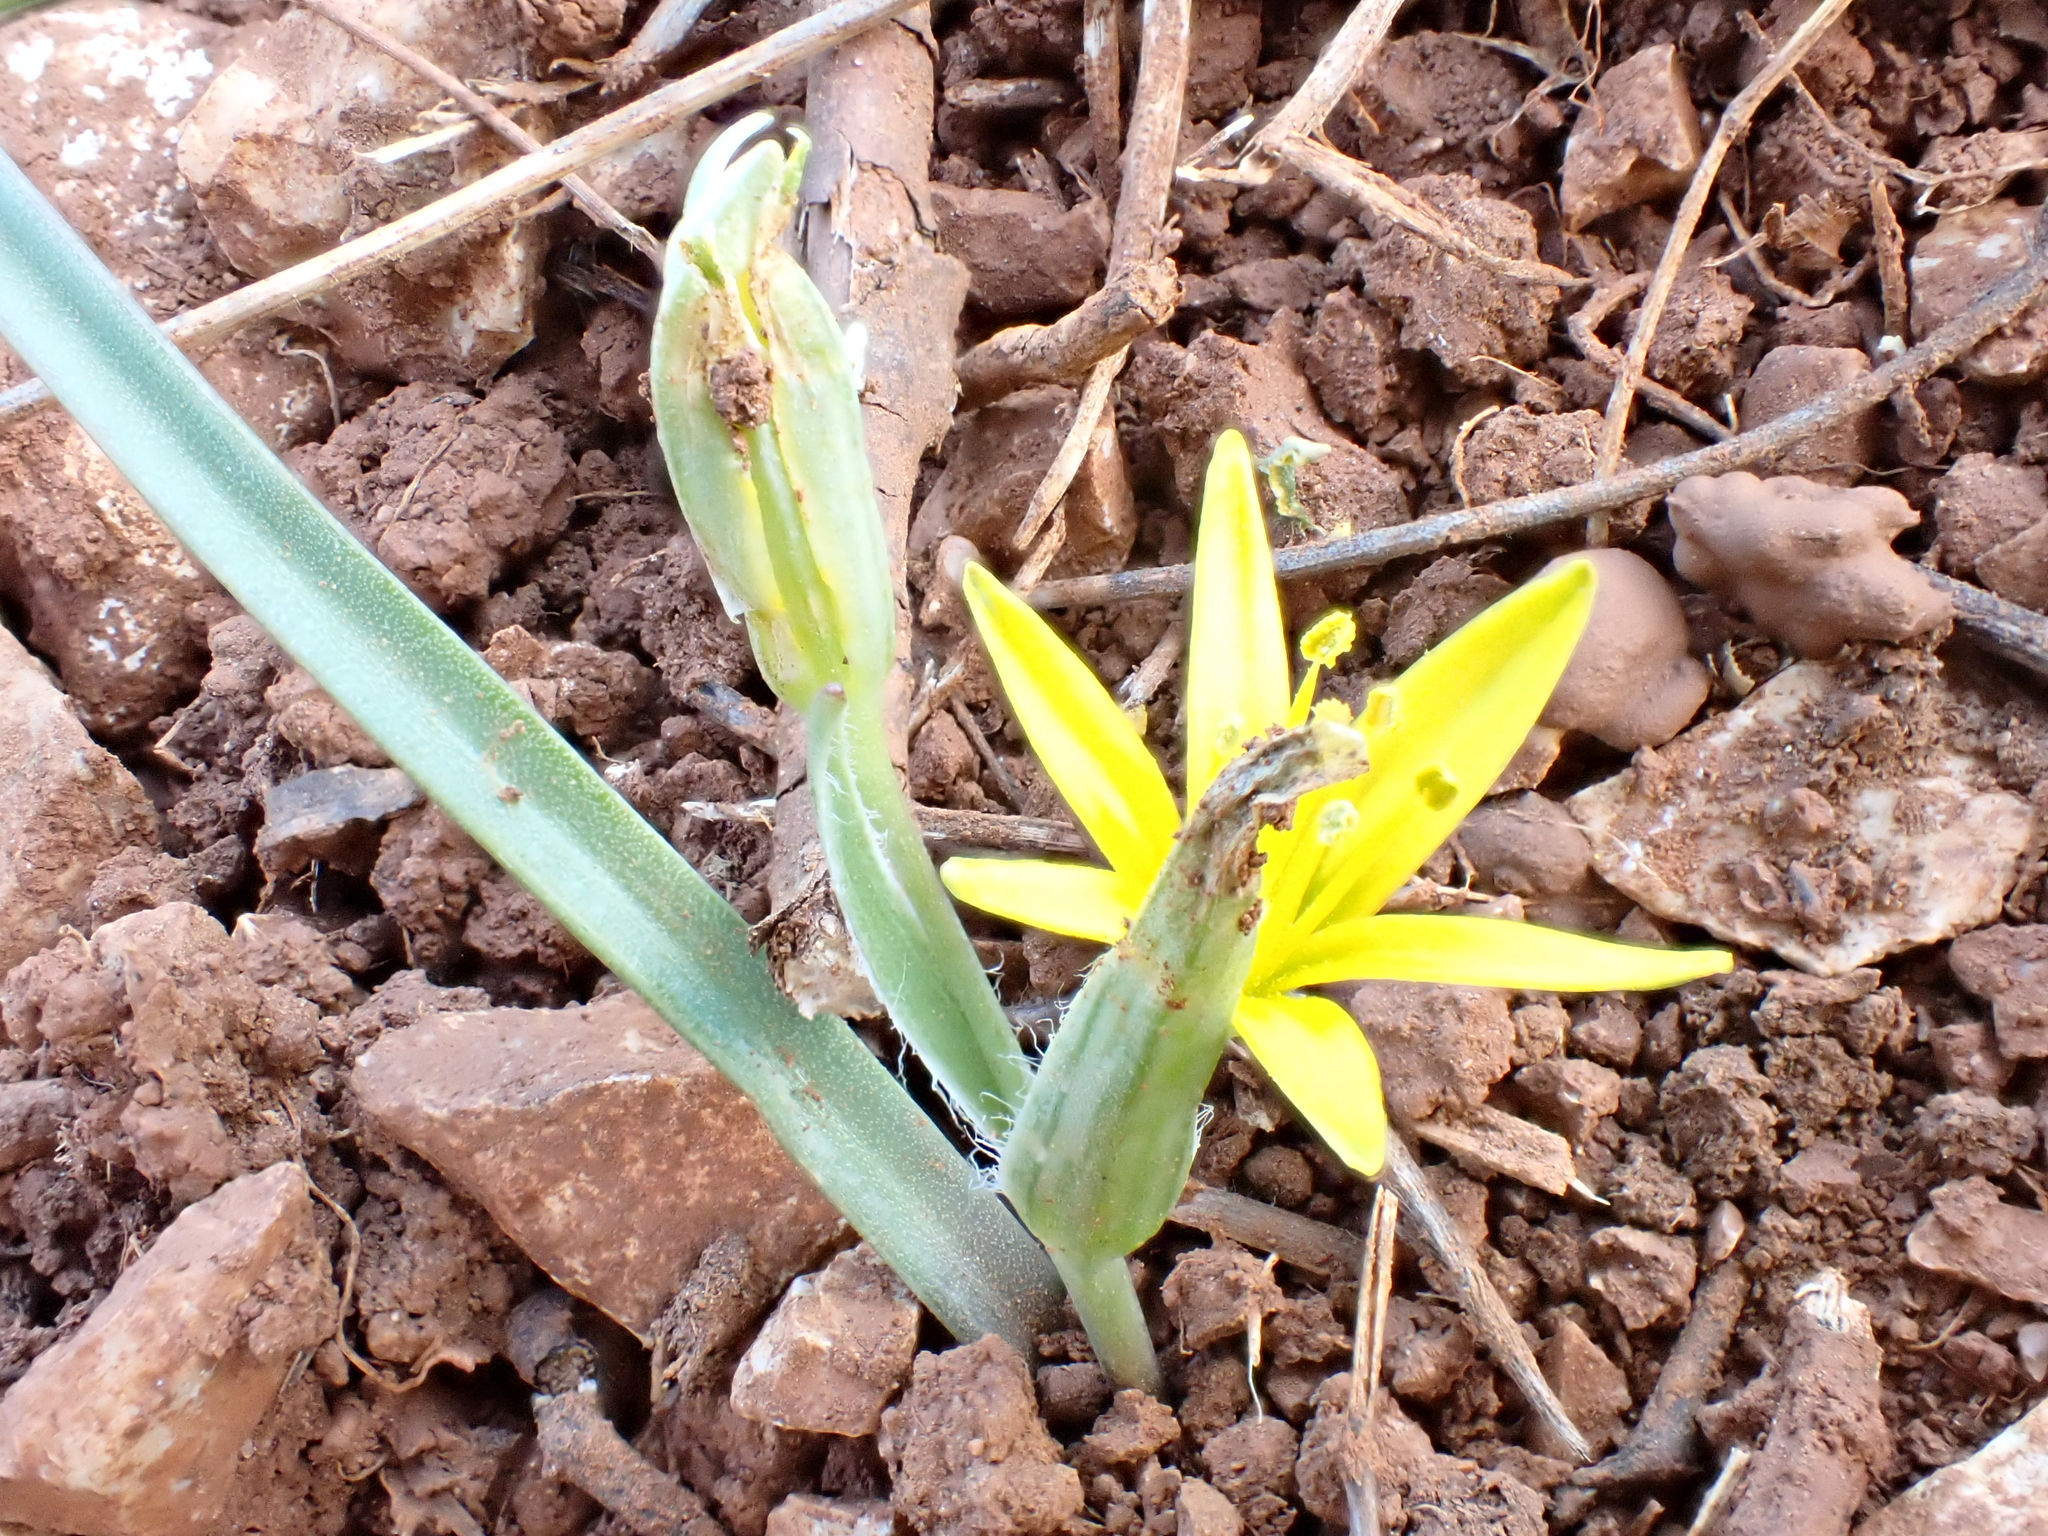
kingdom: Plantae
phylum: Tracheophyta
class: Liliopsida
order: Liliales
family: Liliaceae
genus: Gagea
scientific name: Gagea pratensis
